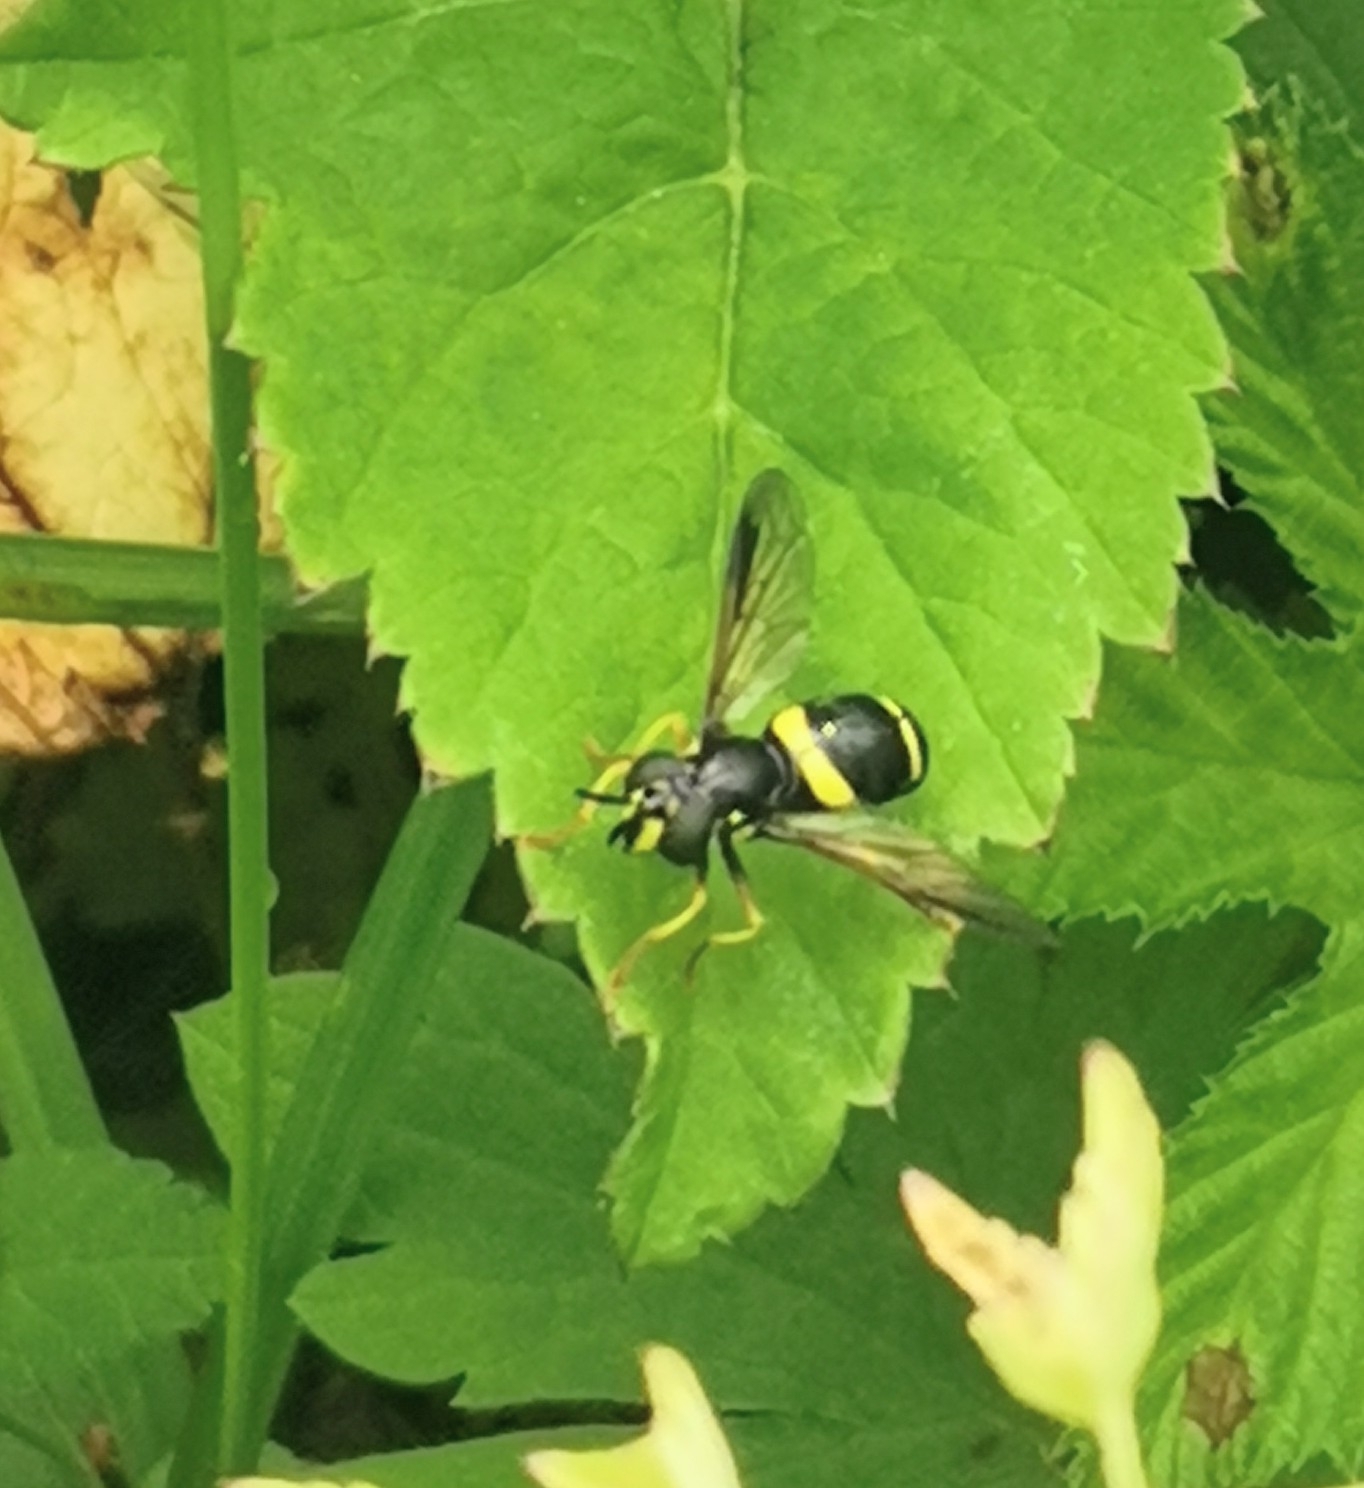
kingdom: Animalia
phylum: Arthropoda
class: Insecta
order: Diptera
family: Syrphidae
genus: Chrysotoxum
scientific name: Chrysotoxum bicincta
